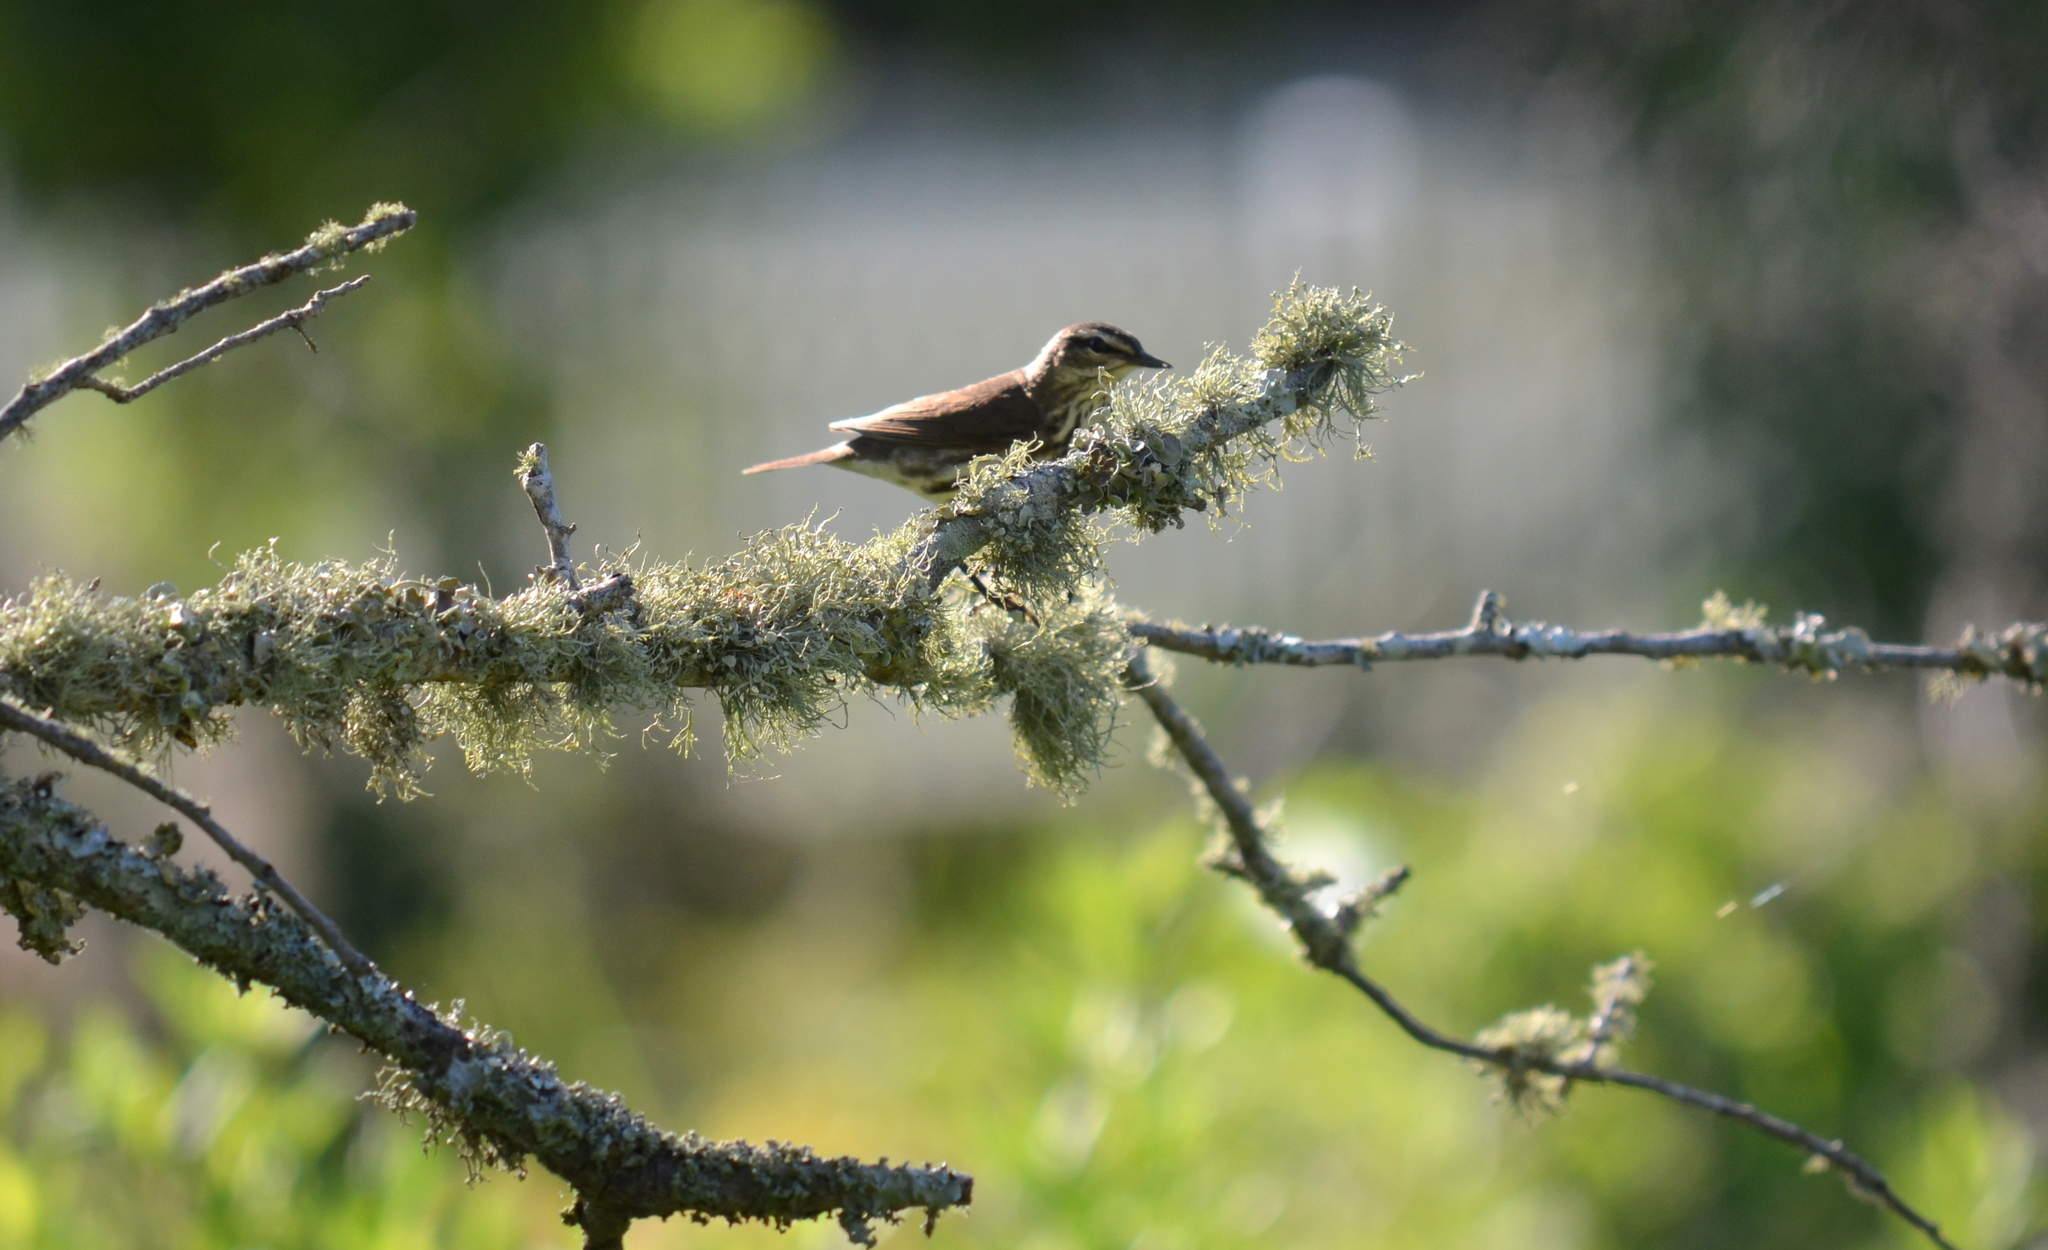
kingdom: Animalia
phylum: Chordata
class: Aves
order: Passeriformes
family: Parulidae
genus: Parkesia
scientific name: Parkesia noveboracensis
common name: Northern waterthrush
